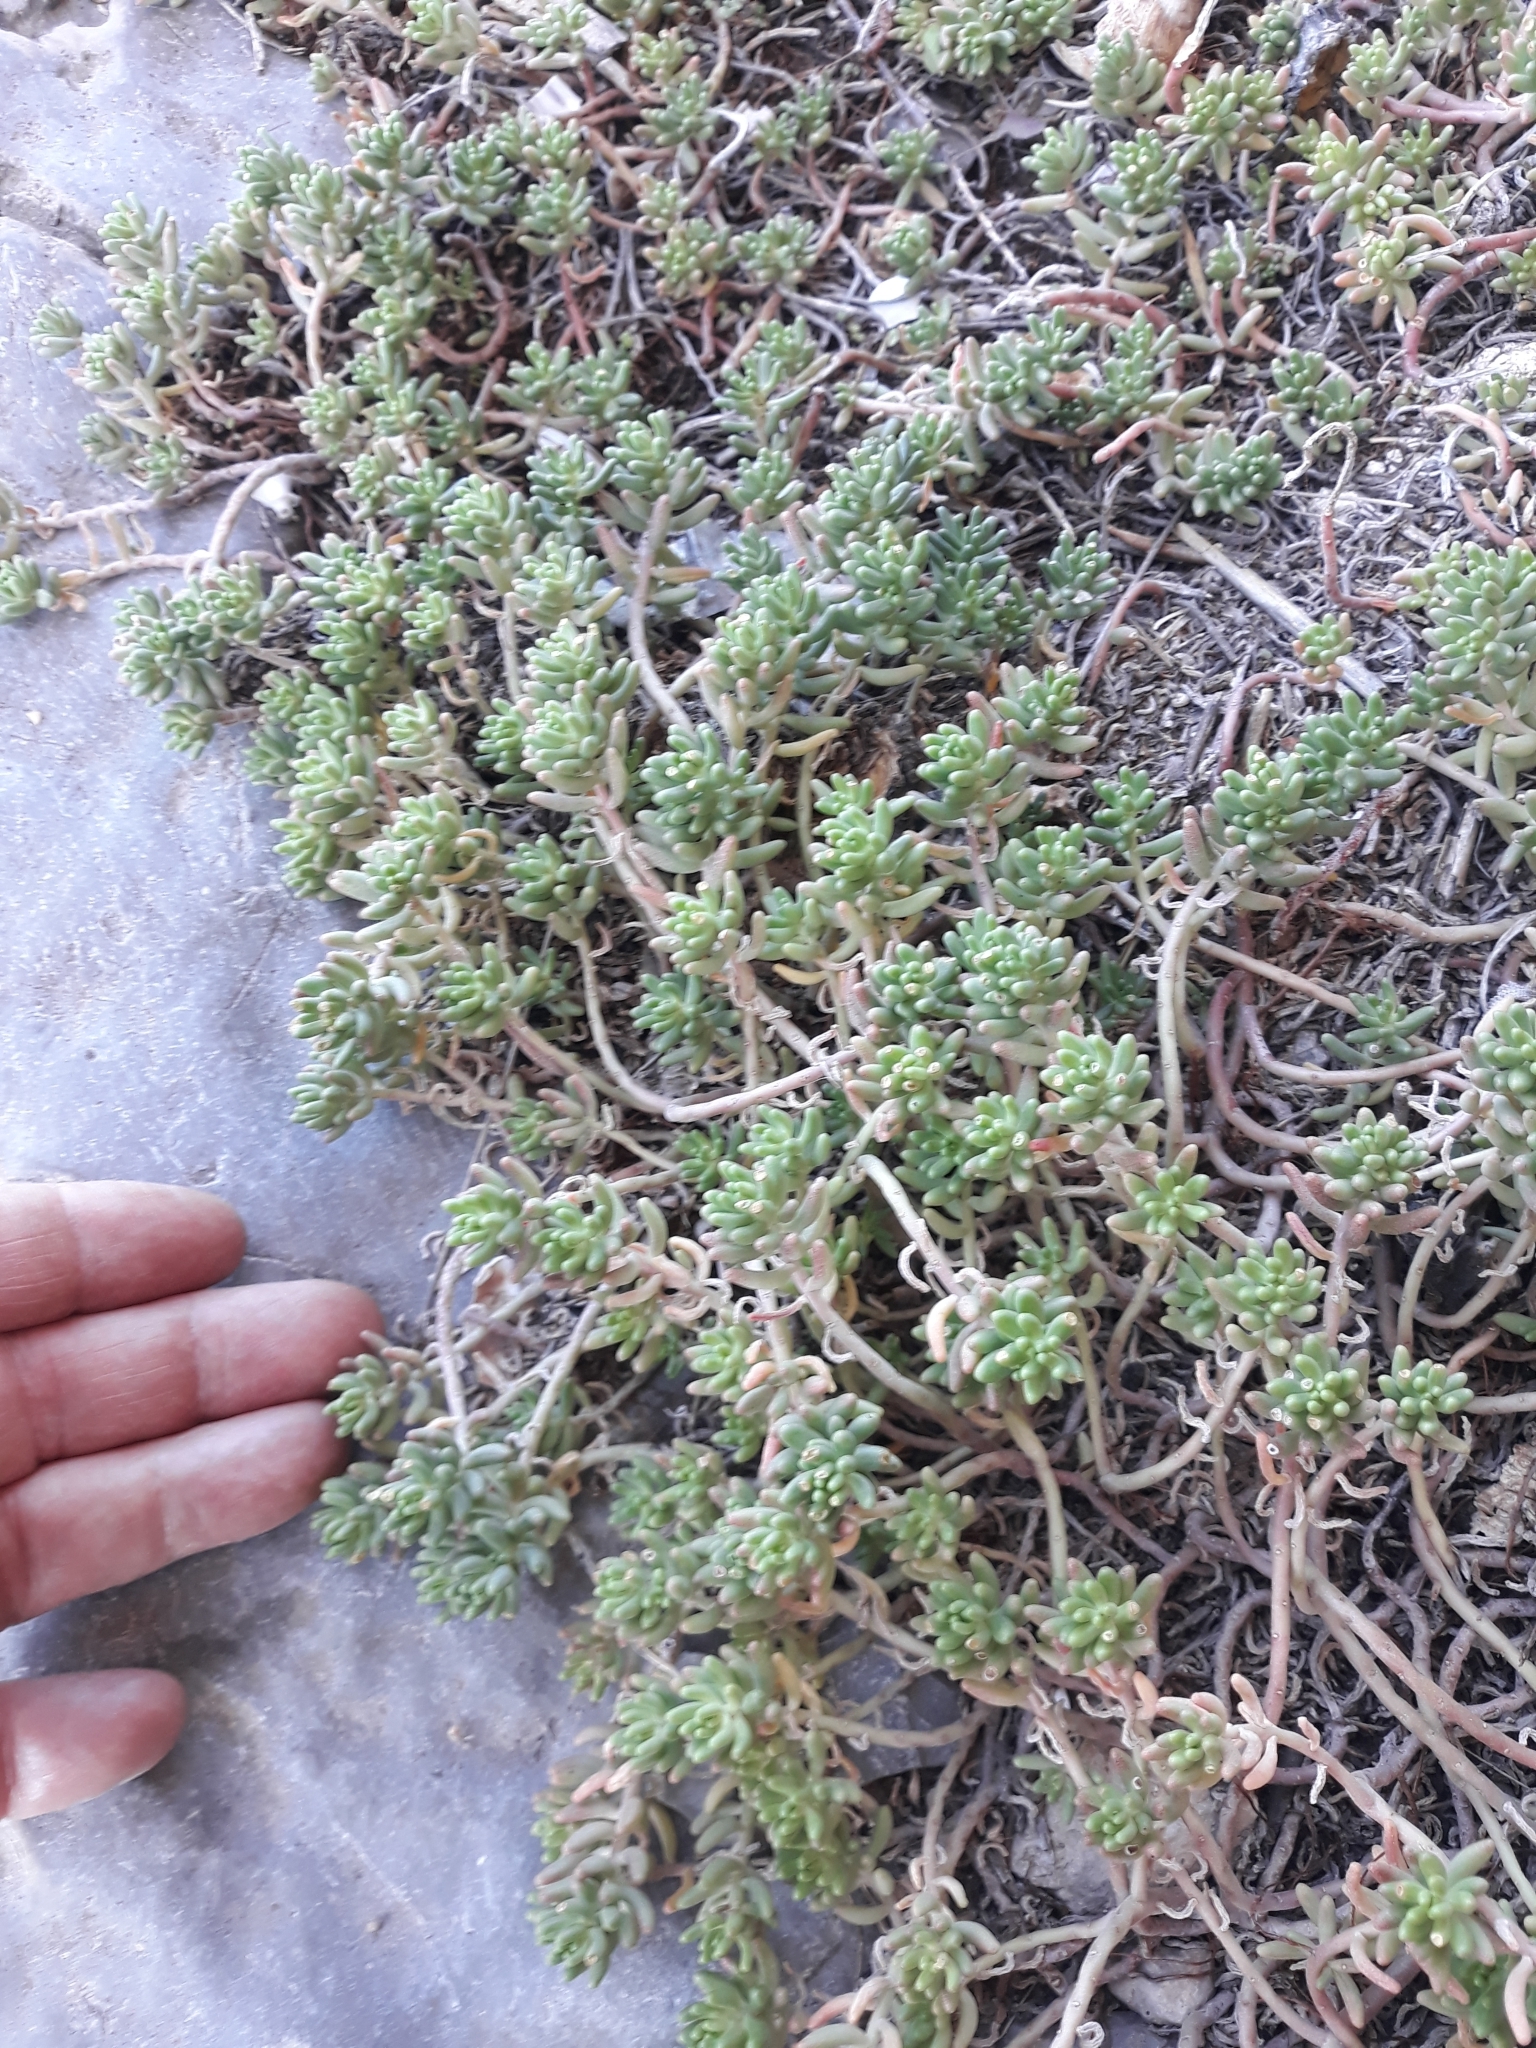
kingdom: Plantae
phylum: Tracheophyta
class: Magnoliopsida
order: Saxifragales
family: Crassulaceae
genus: Sedum
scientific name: Sedum album
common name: White stonecrop
